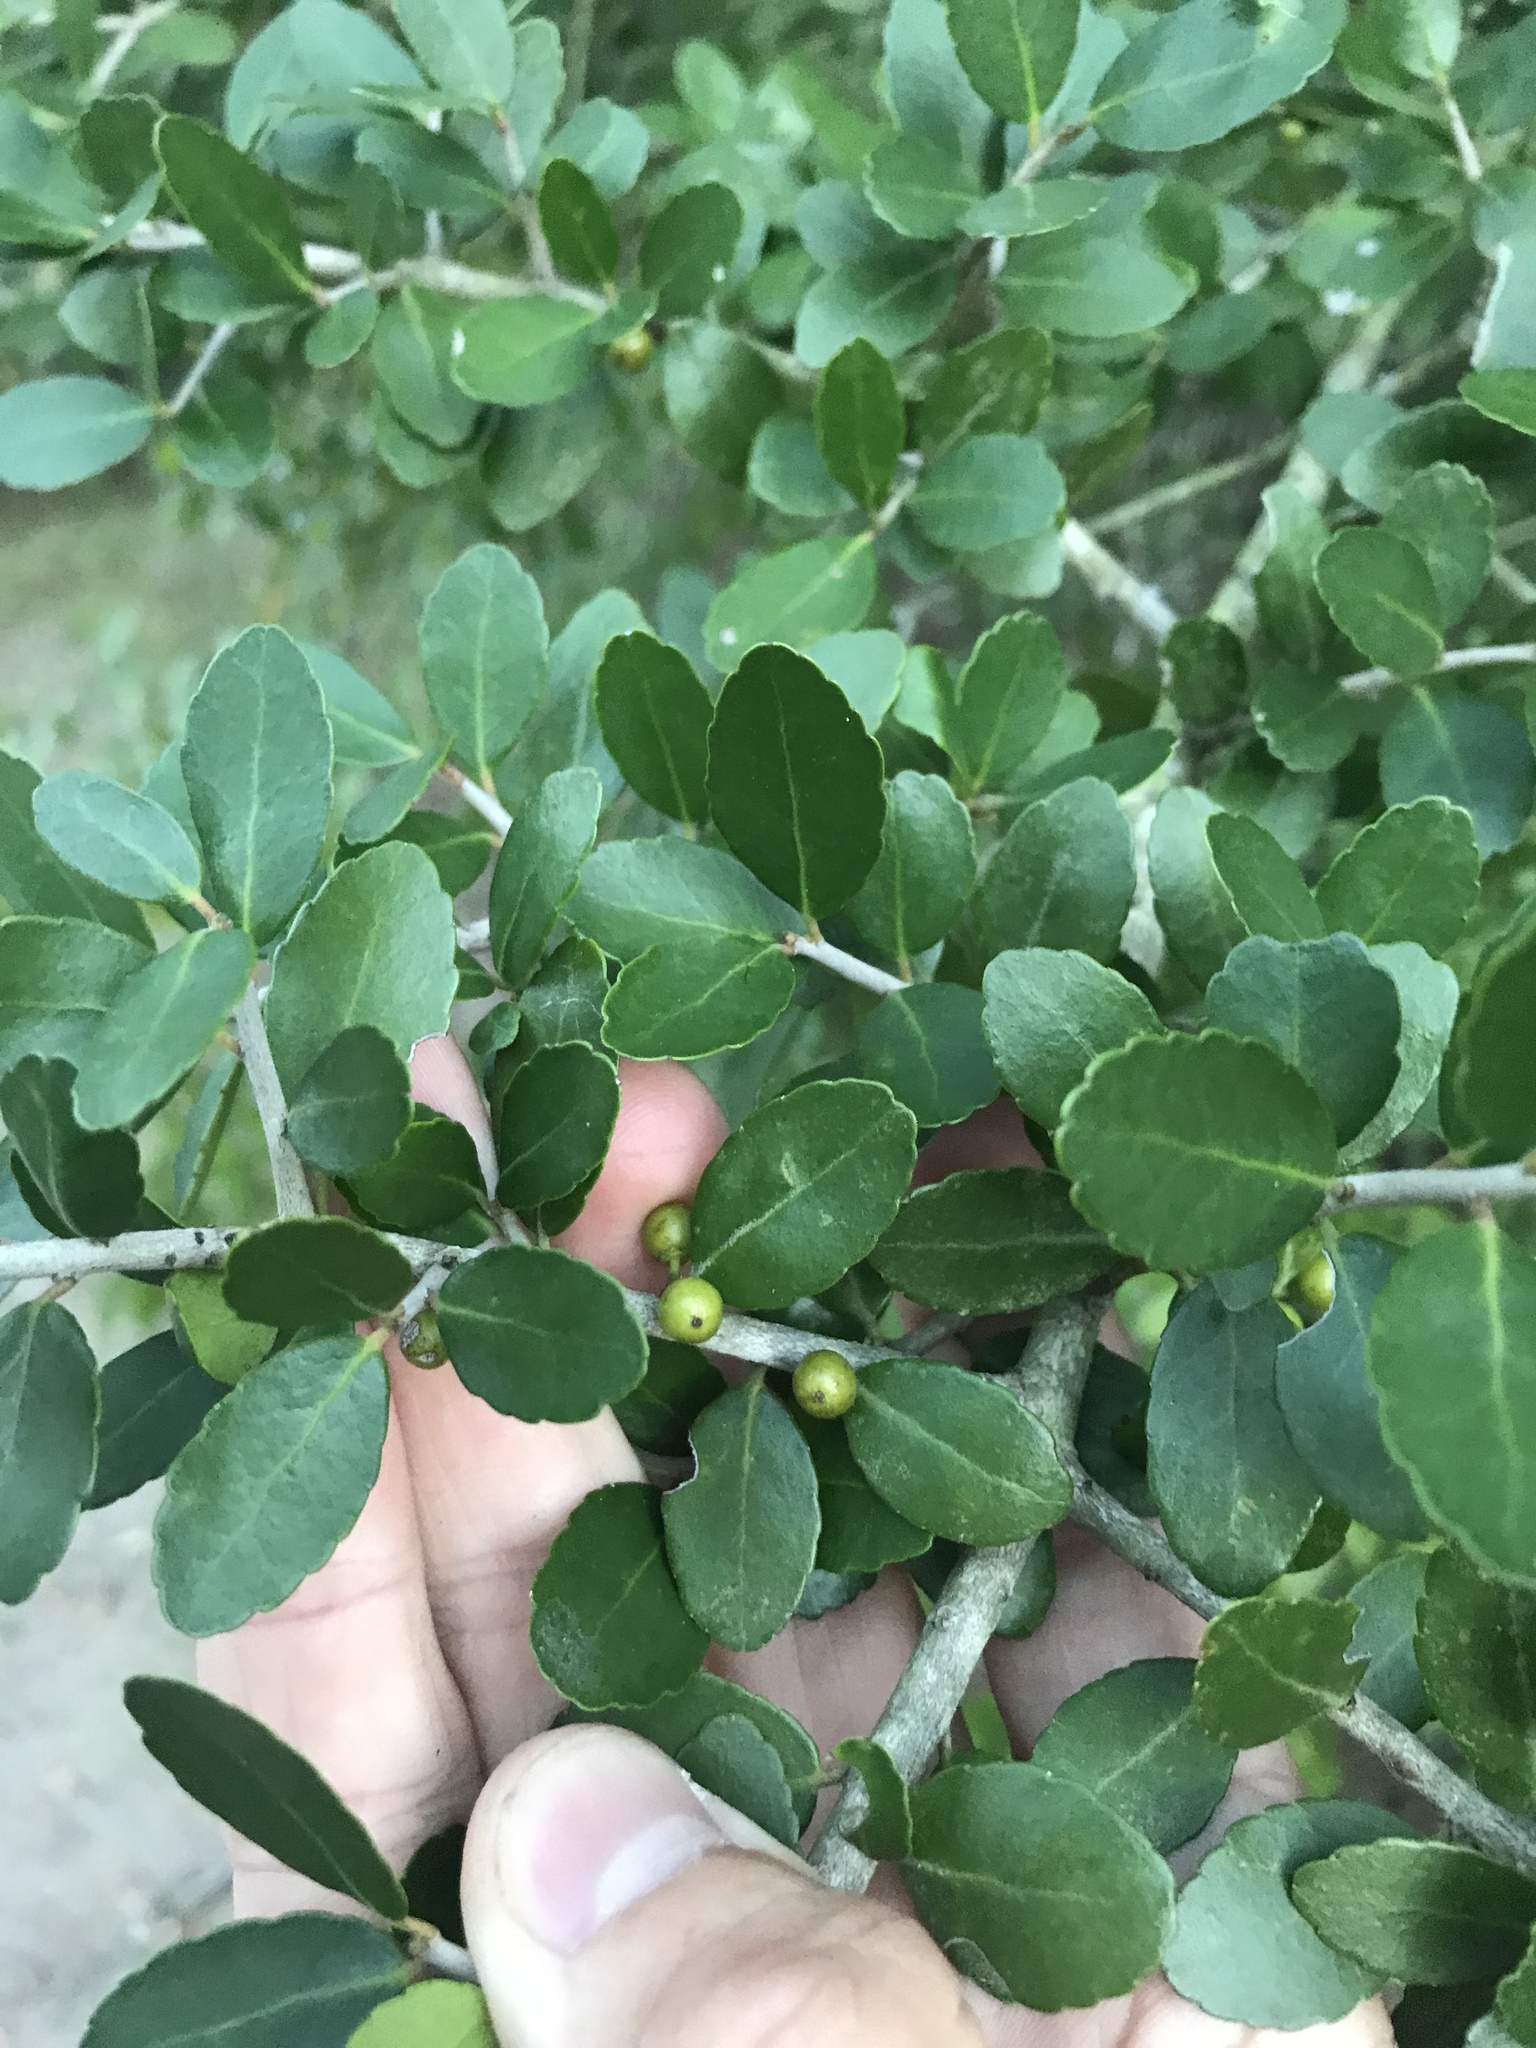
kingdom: Plantae
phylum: Tracheophyta
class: Magnoliopsida
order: Aquifoliales
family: Aquifoliaceae
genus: Ilex
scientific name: Ilex vomitoria
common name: Yaupon holly
